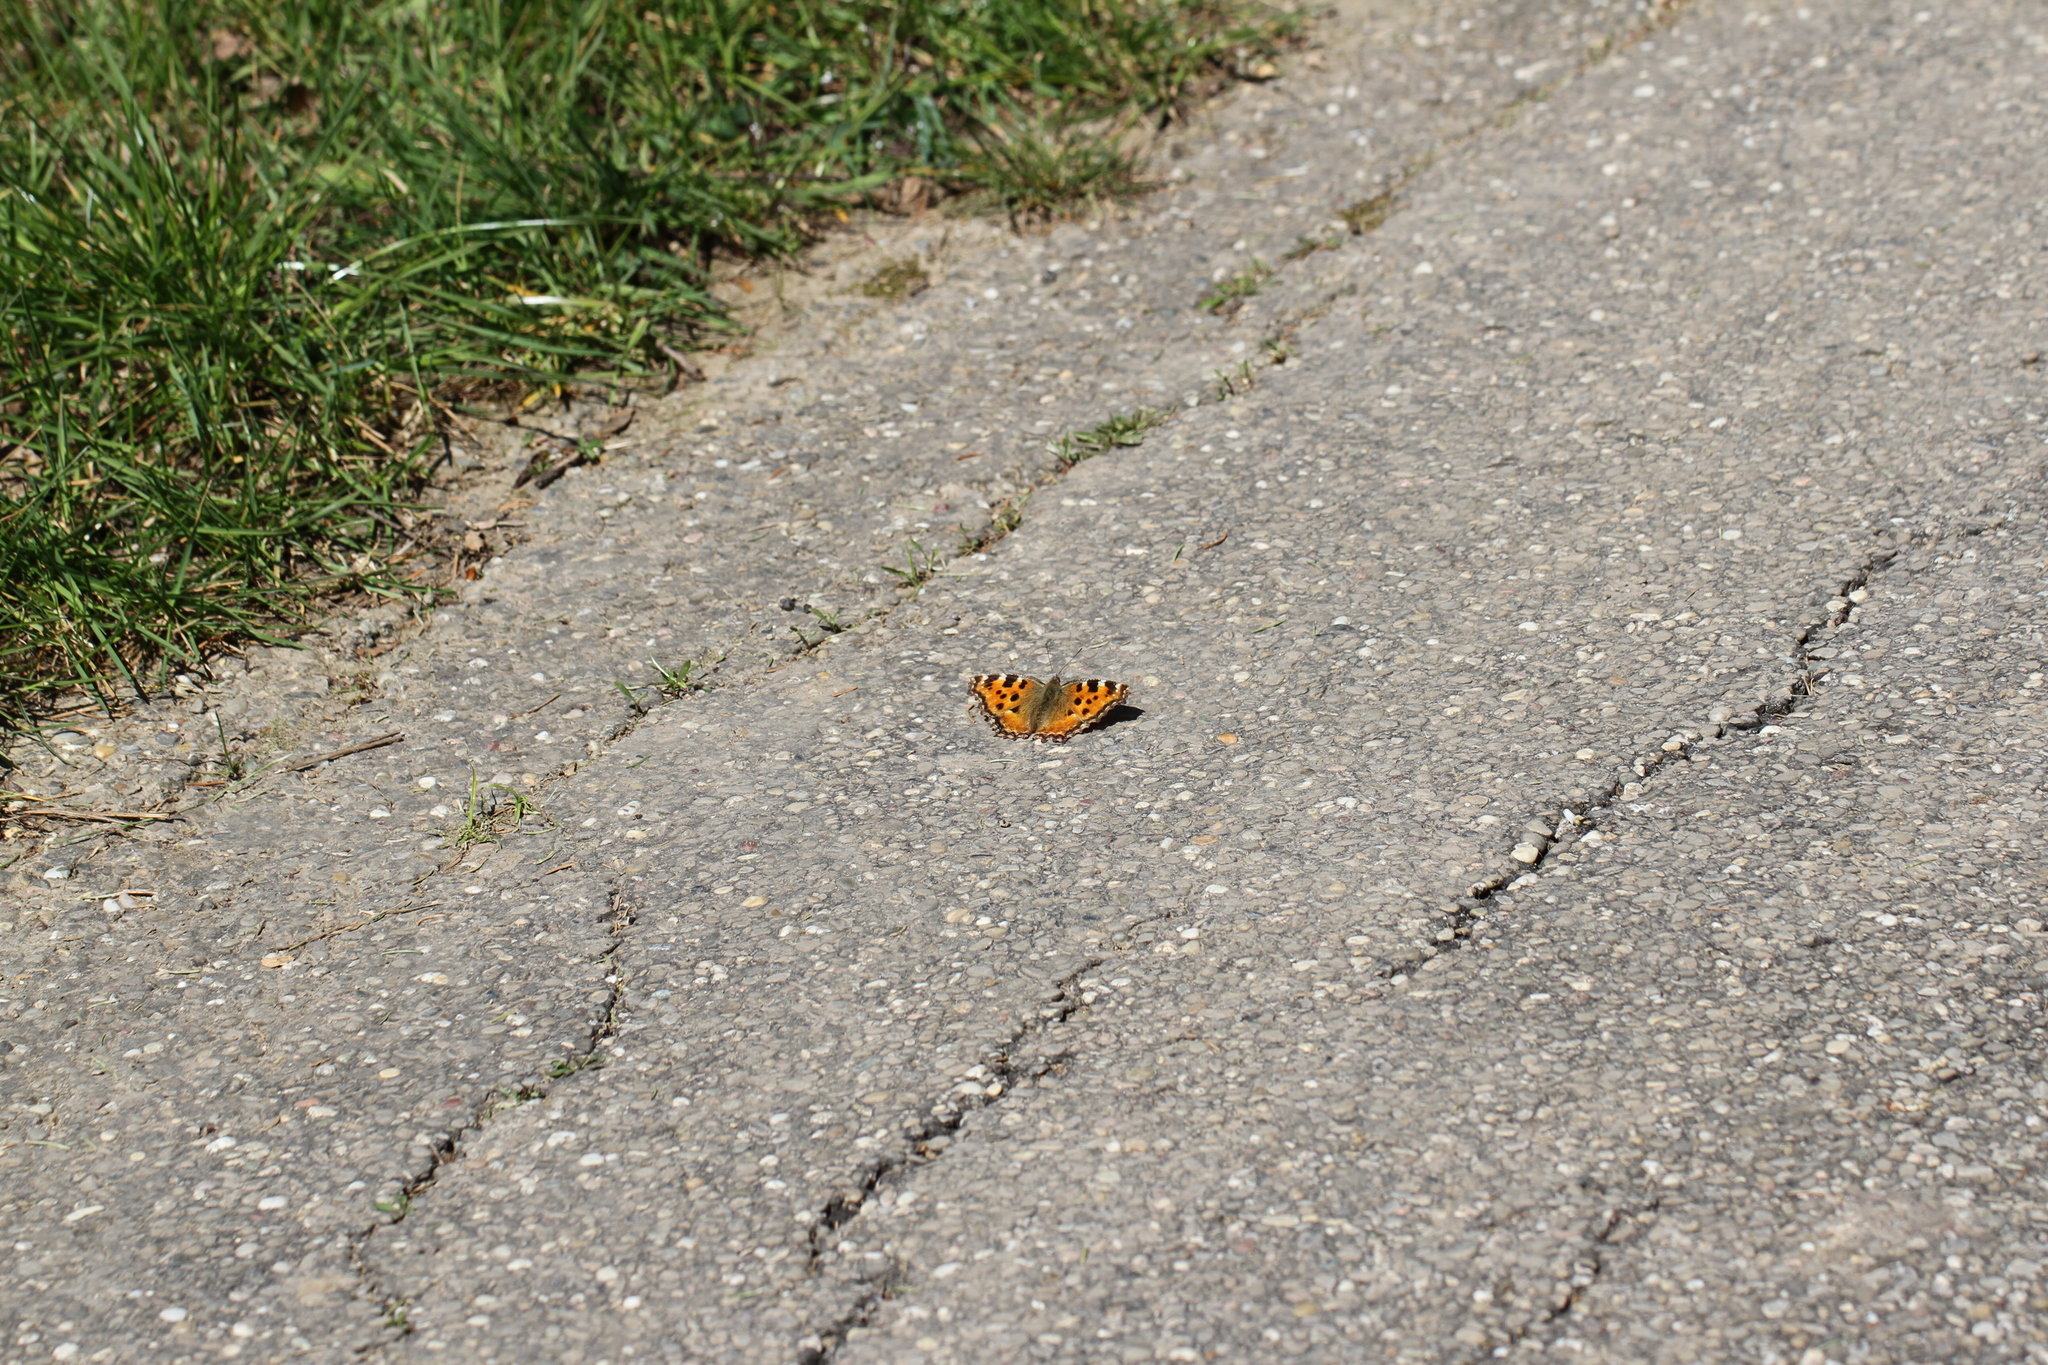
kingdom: Animalia
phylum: Arthropoda
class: Insecta
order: Lepidoptera
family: Nymphalidae
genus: Nymphalis
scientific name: Nymphalis polychloros
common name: Large tortoiseshell
